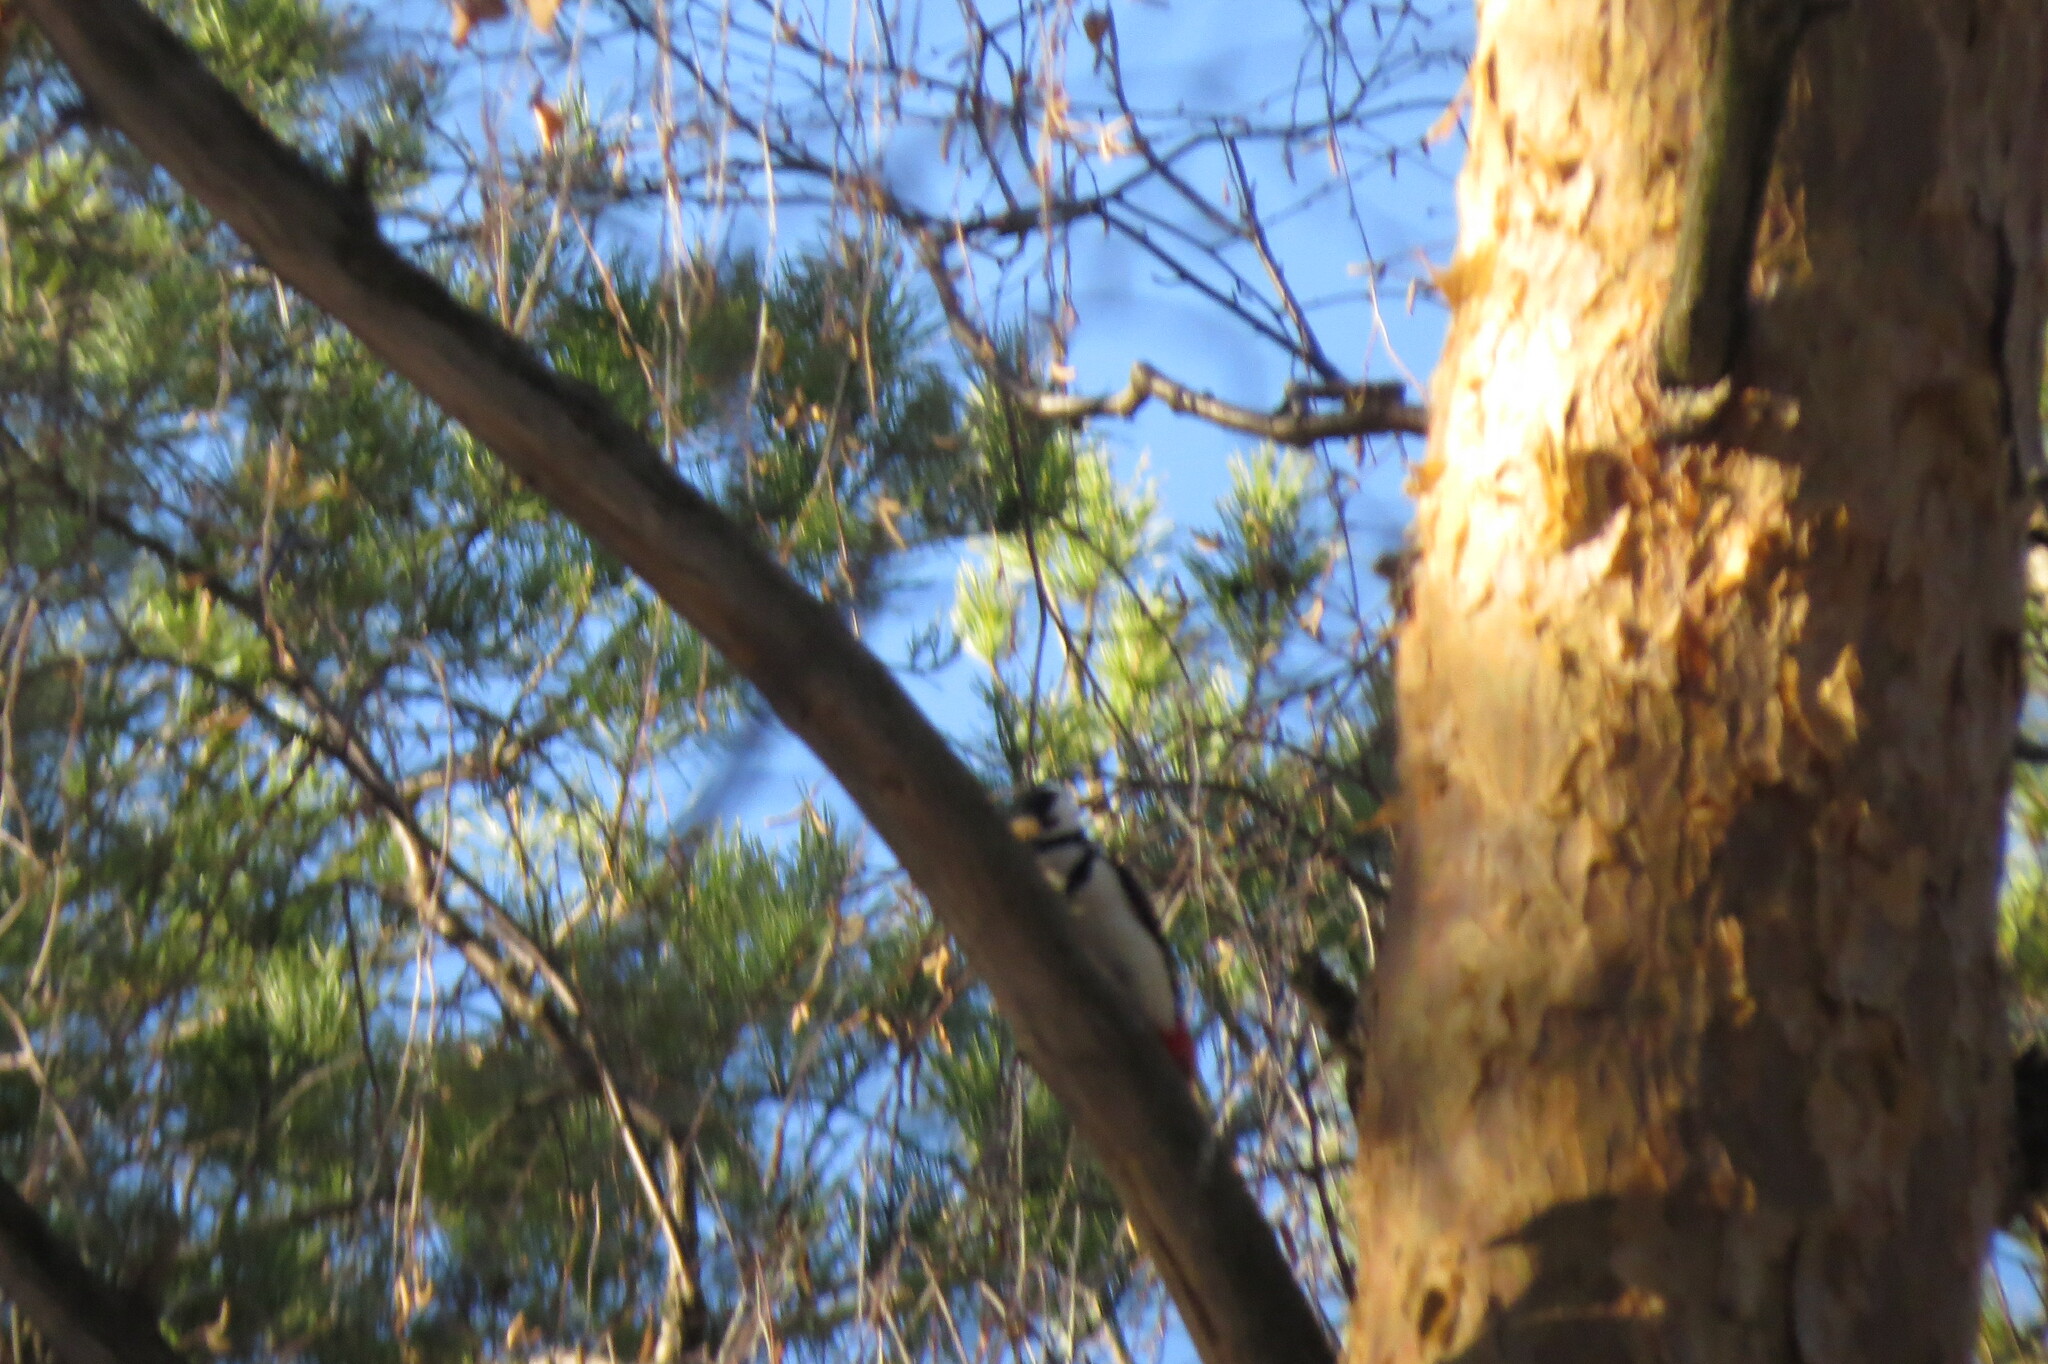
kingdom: Animalia
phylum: Chordata
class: Aves
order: Piciformes
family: Picidae
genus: Dendrocopos
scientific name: Dendrocopos major
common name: Great spotted woodpecker
